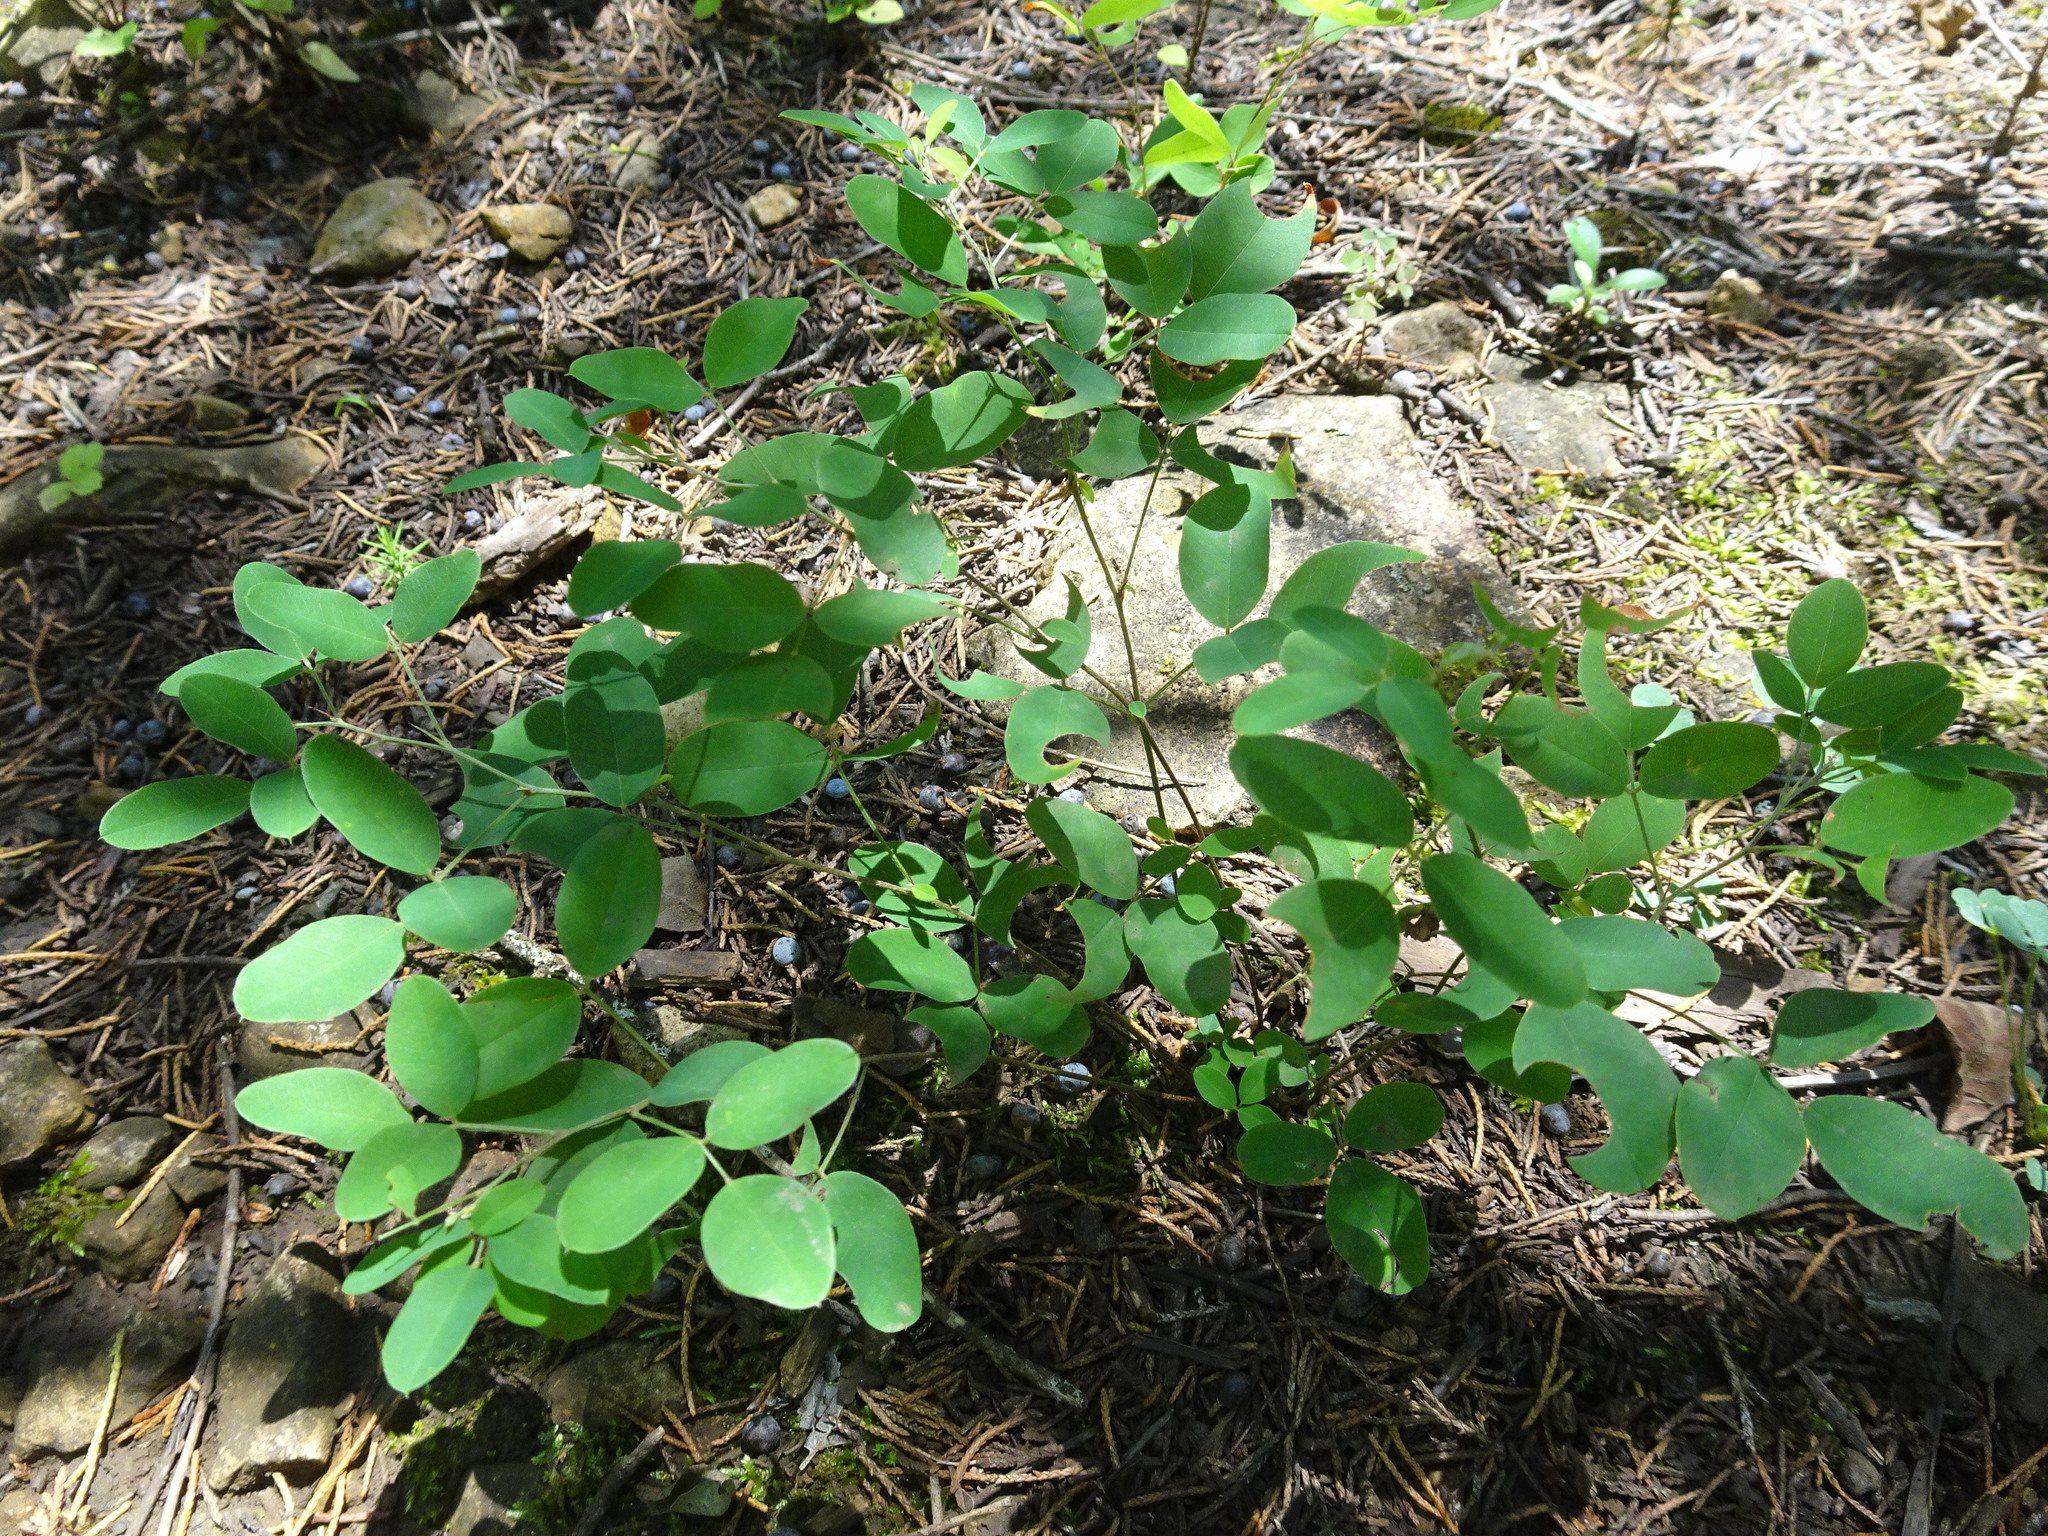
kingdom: Plantae
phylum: Tracheophyta
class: Magnoliopsida
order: Fabales
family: Fabaceae
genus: Lespedeza
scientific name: Lespedeza
